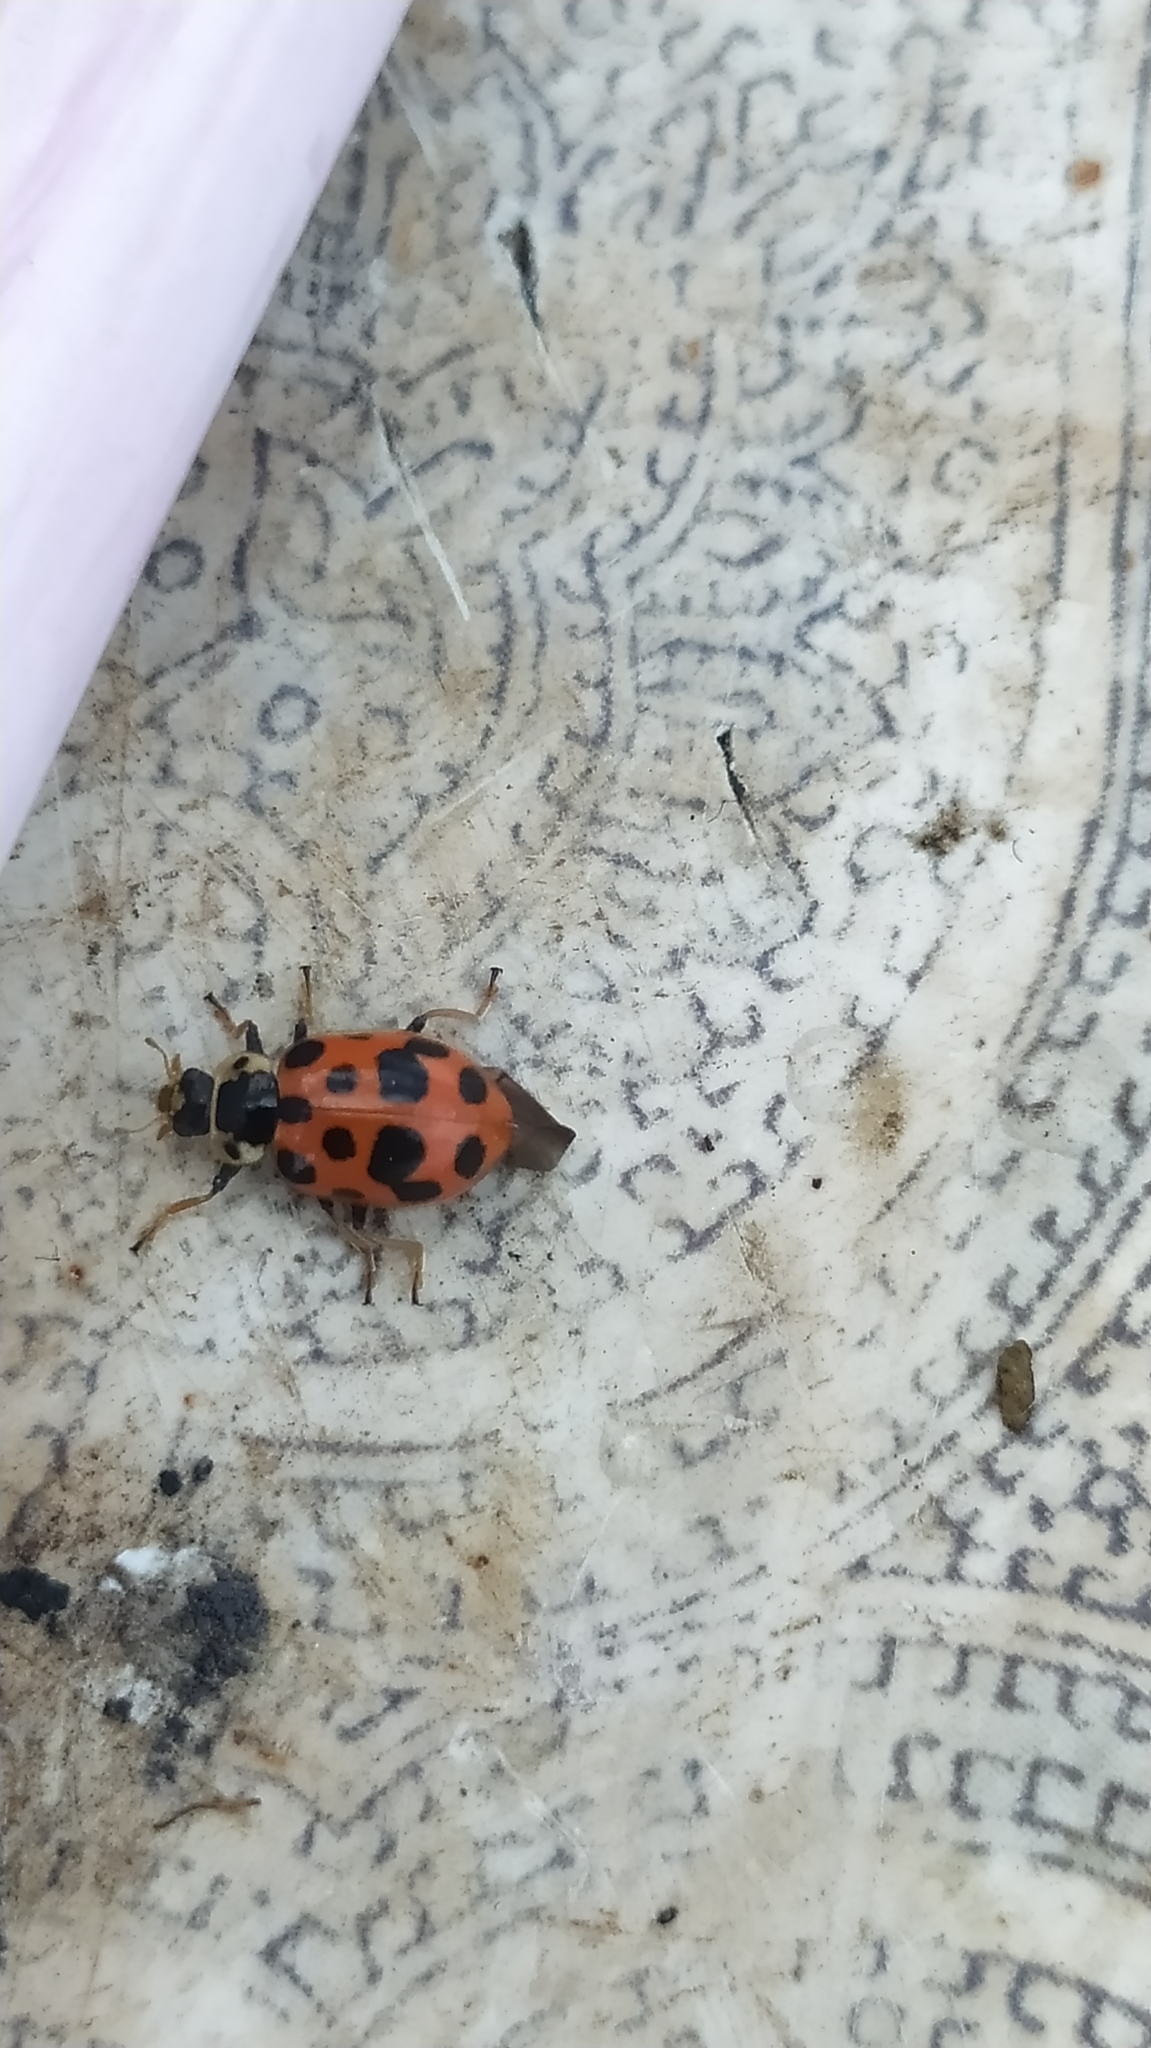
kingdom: Animalia
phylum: Arthropoda
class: Insecta
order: Coleoptera
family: Coccinellidae
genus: Hippodamia
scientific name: Hippodamia tredecimpunctata
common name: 13-spot ladybird
